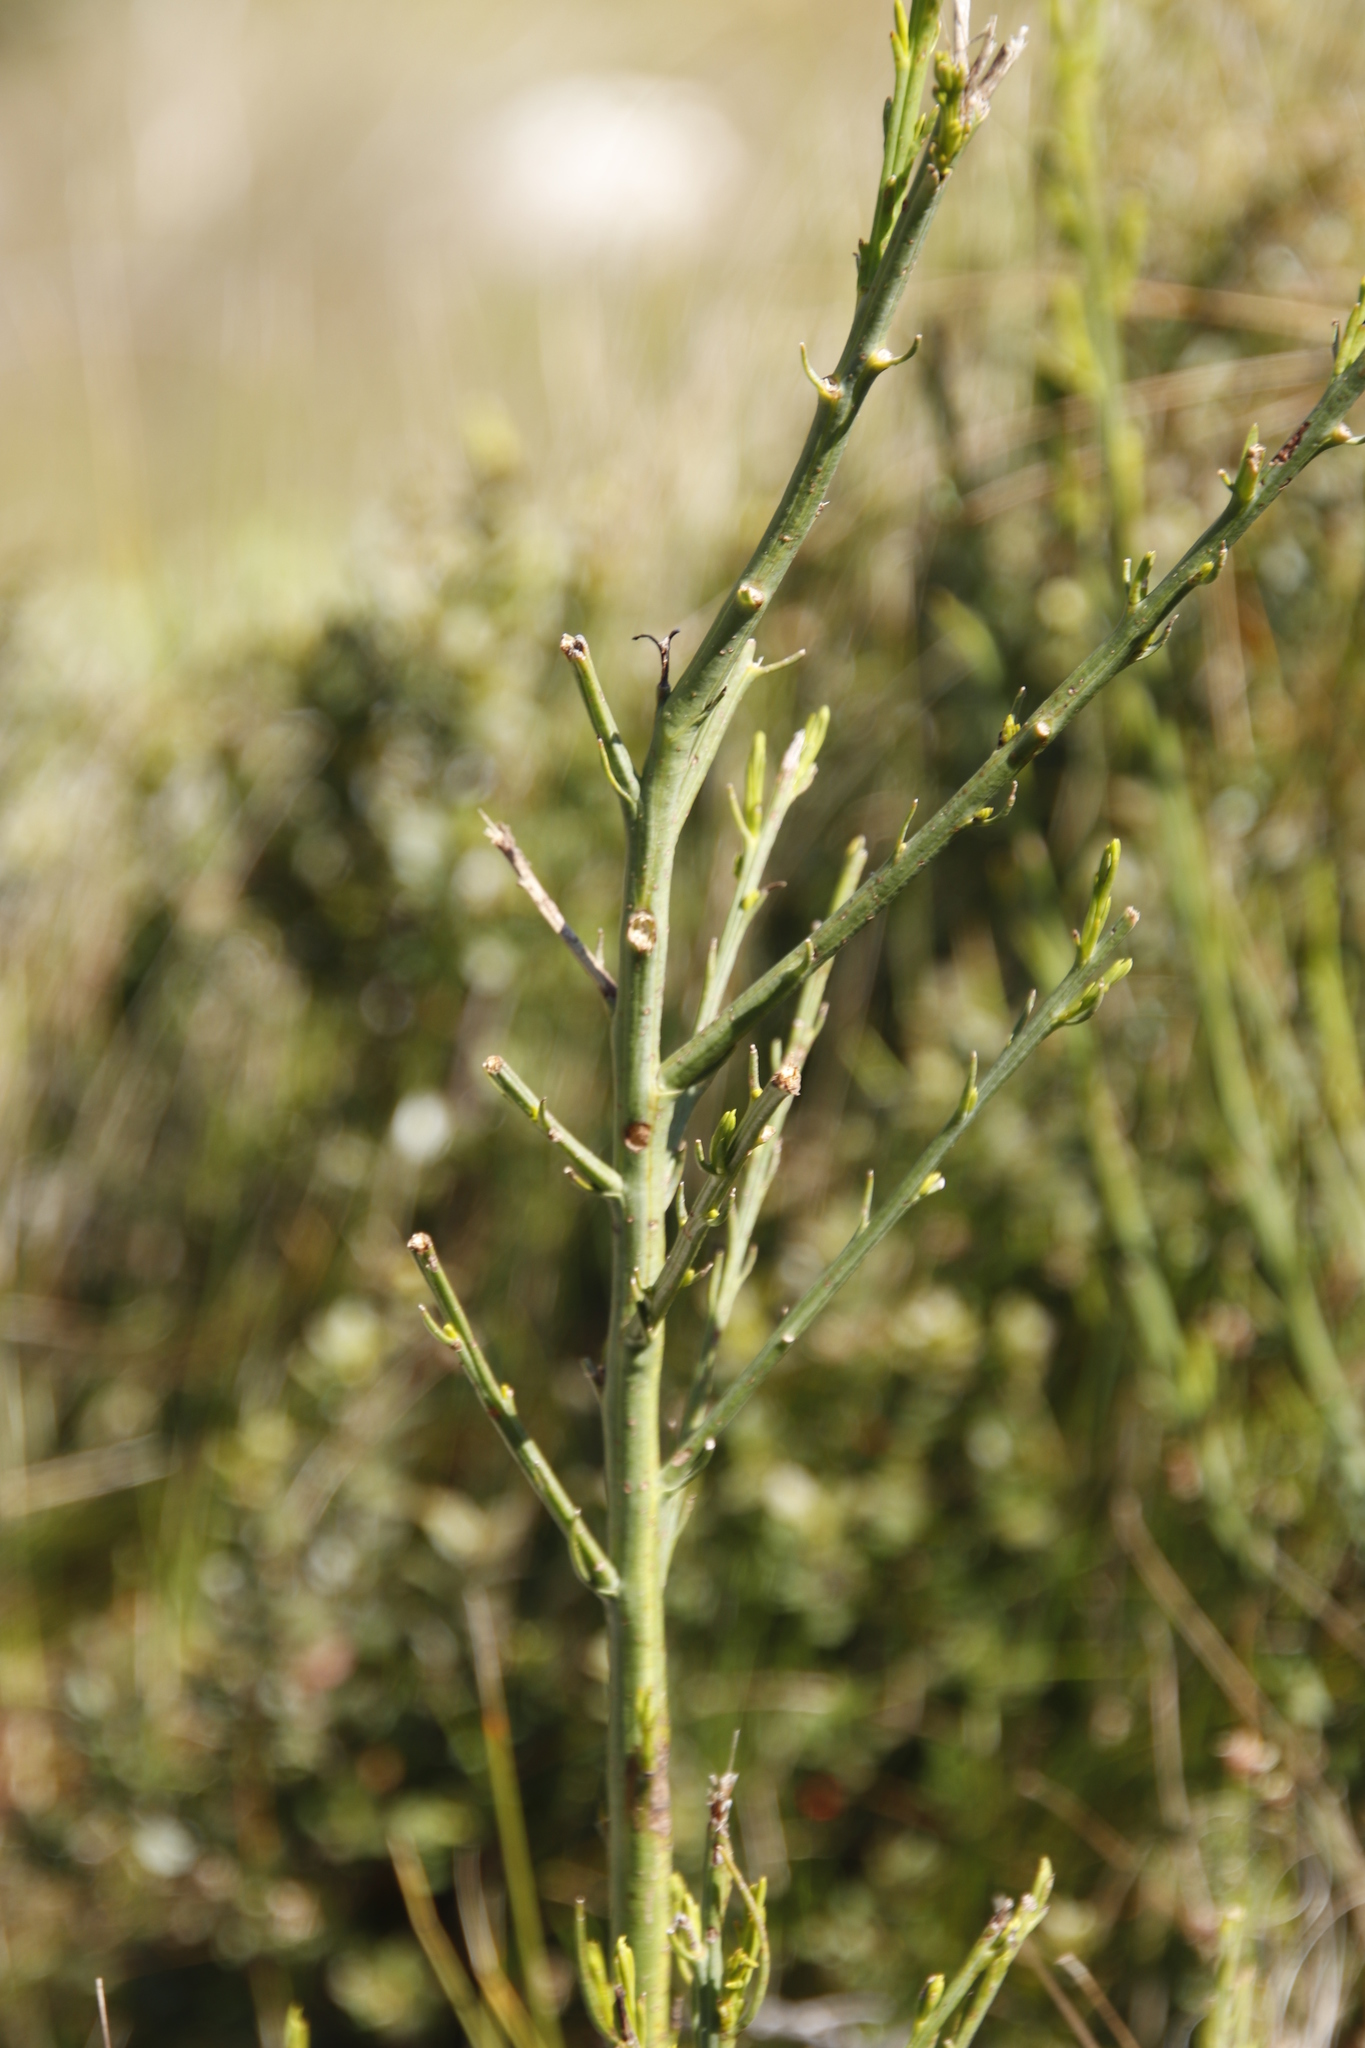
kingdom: Plantae
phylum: Tracheophyta
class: Magnoliopsida
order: Santalales
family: Thesiaceae
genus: Thesium
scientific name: Thesium strictum
